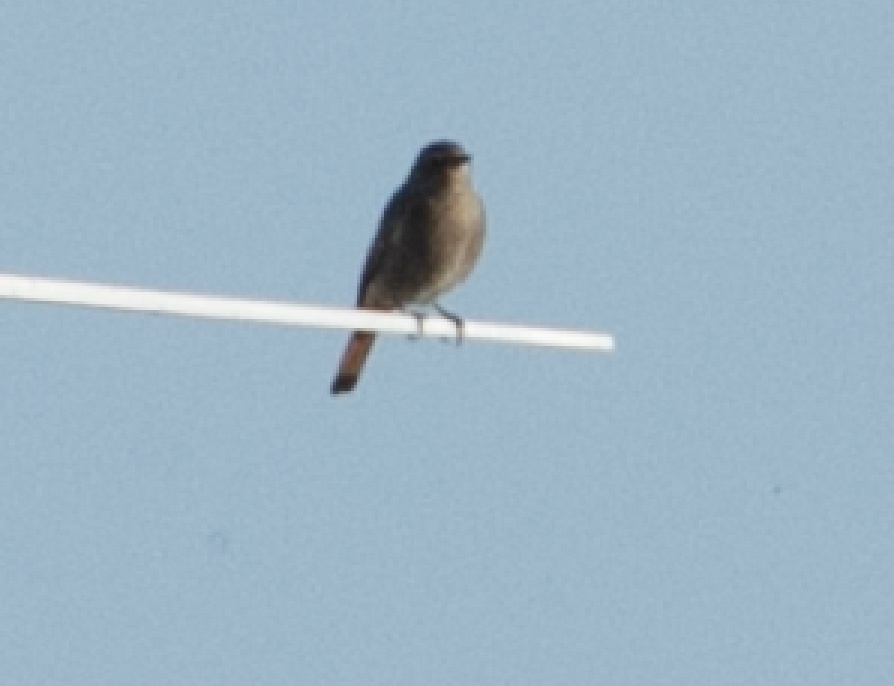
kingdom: Animalia
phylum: Chordata
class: Aves
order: Passeriformes
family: Muscicapidae
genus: Phoenicurus
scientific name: Phoenicurus ochruros
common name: Black redstart
